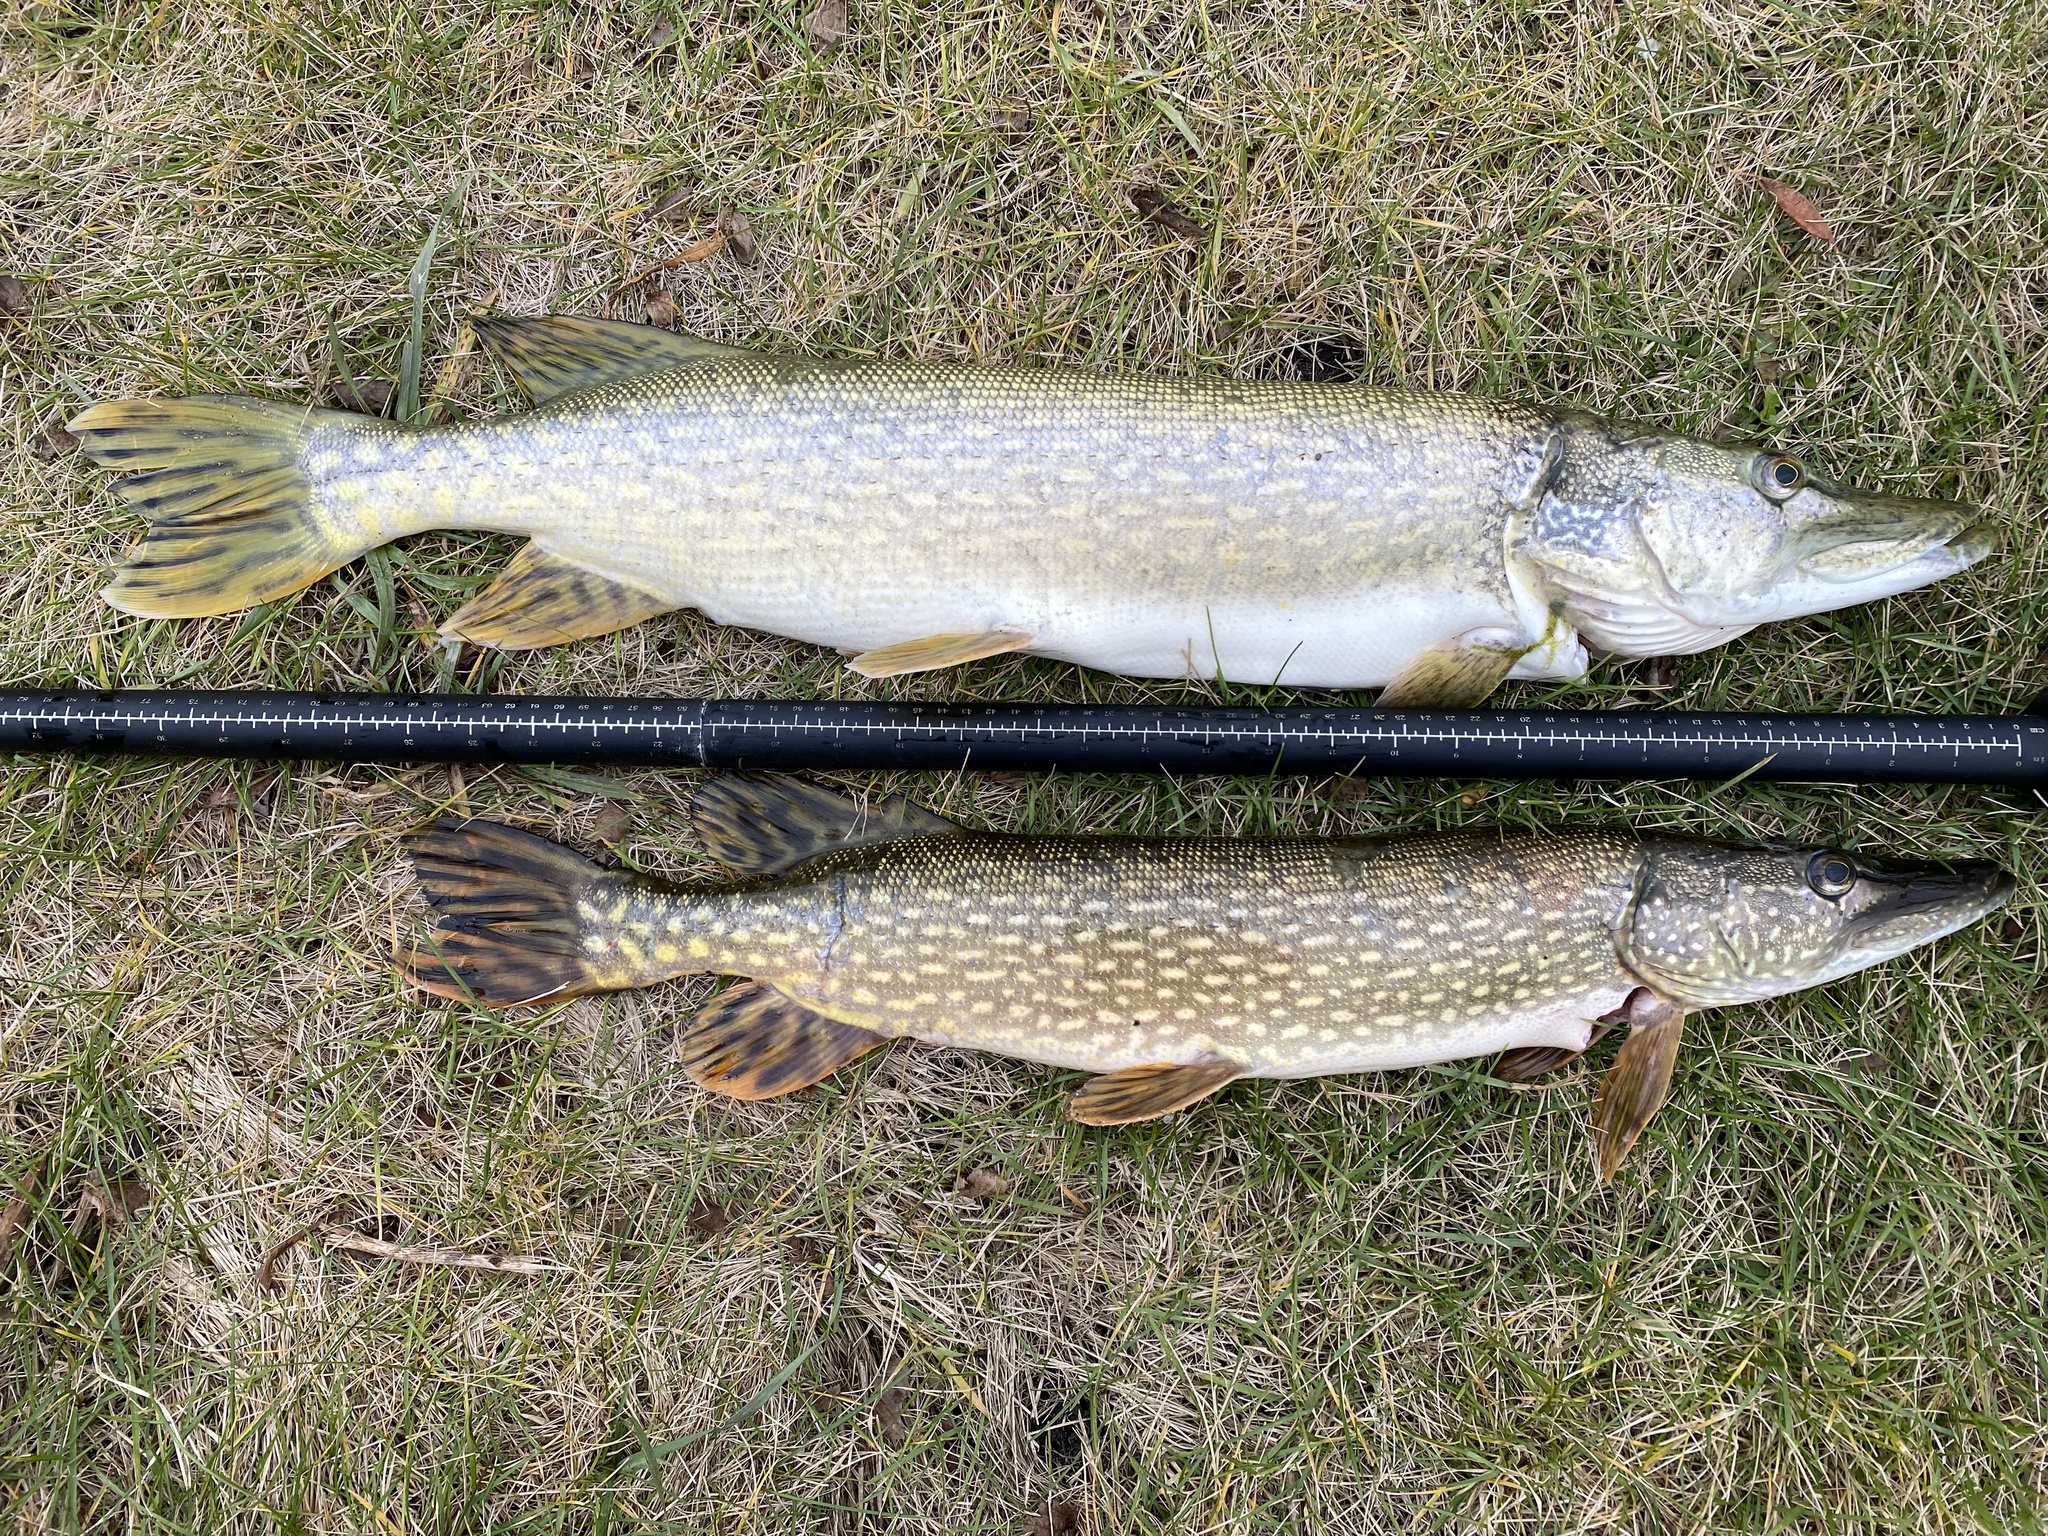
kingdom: Animalia
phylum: Chordata
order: Esociformes
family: Esocidae
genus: Esox
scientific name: Esox lucius
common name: Northern pike
